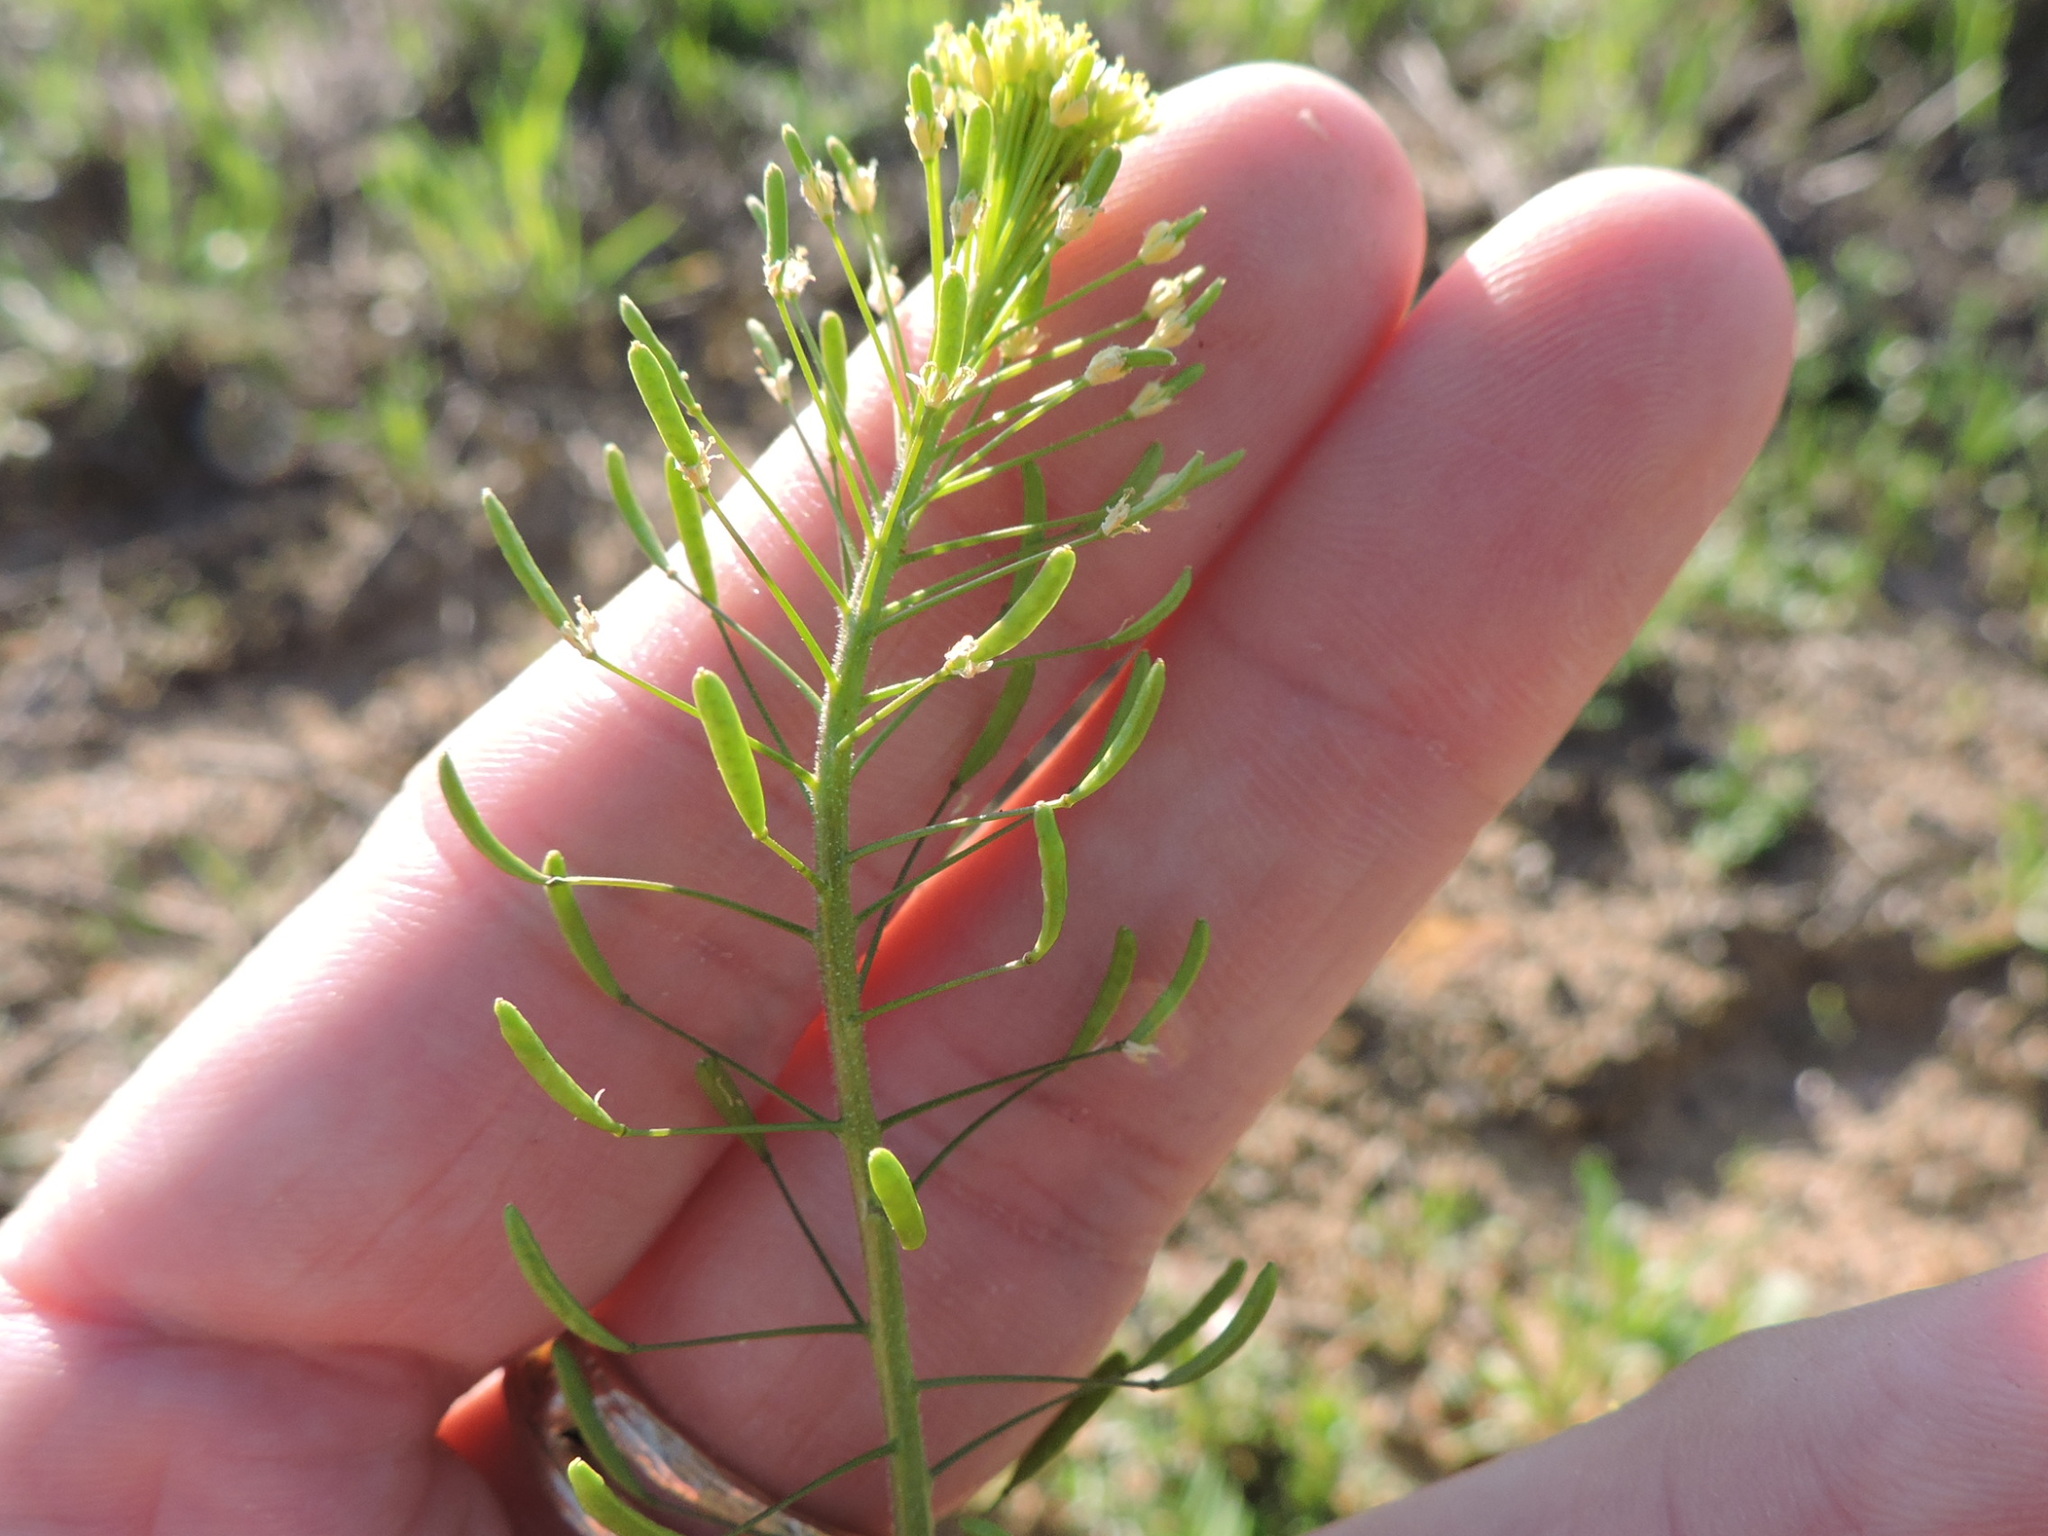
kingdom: Plantae
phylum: Tracheophyta
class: Magnoliopsida
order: Brassicales
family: Brassicaceae
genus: Descurainia
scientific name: Descurainia pinnata
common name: Western tansy mustard
